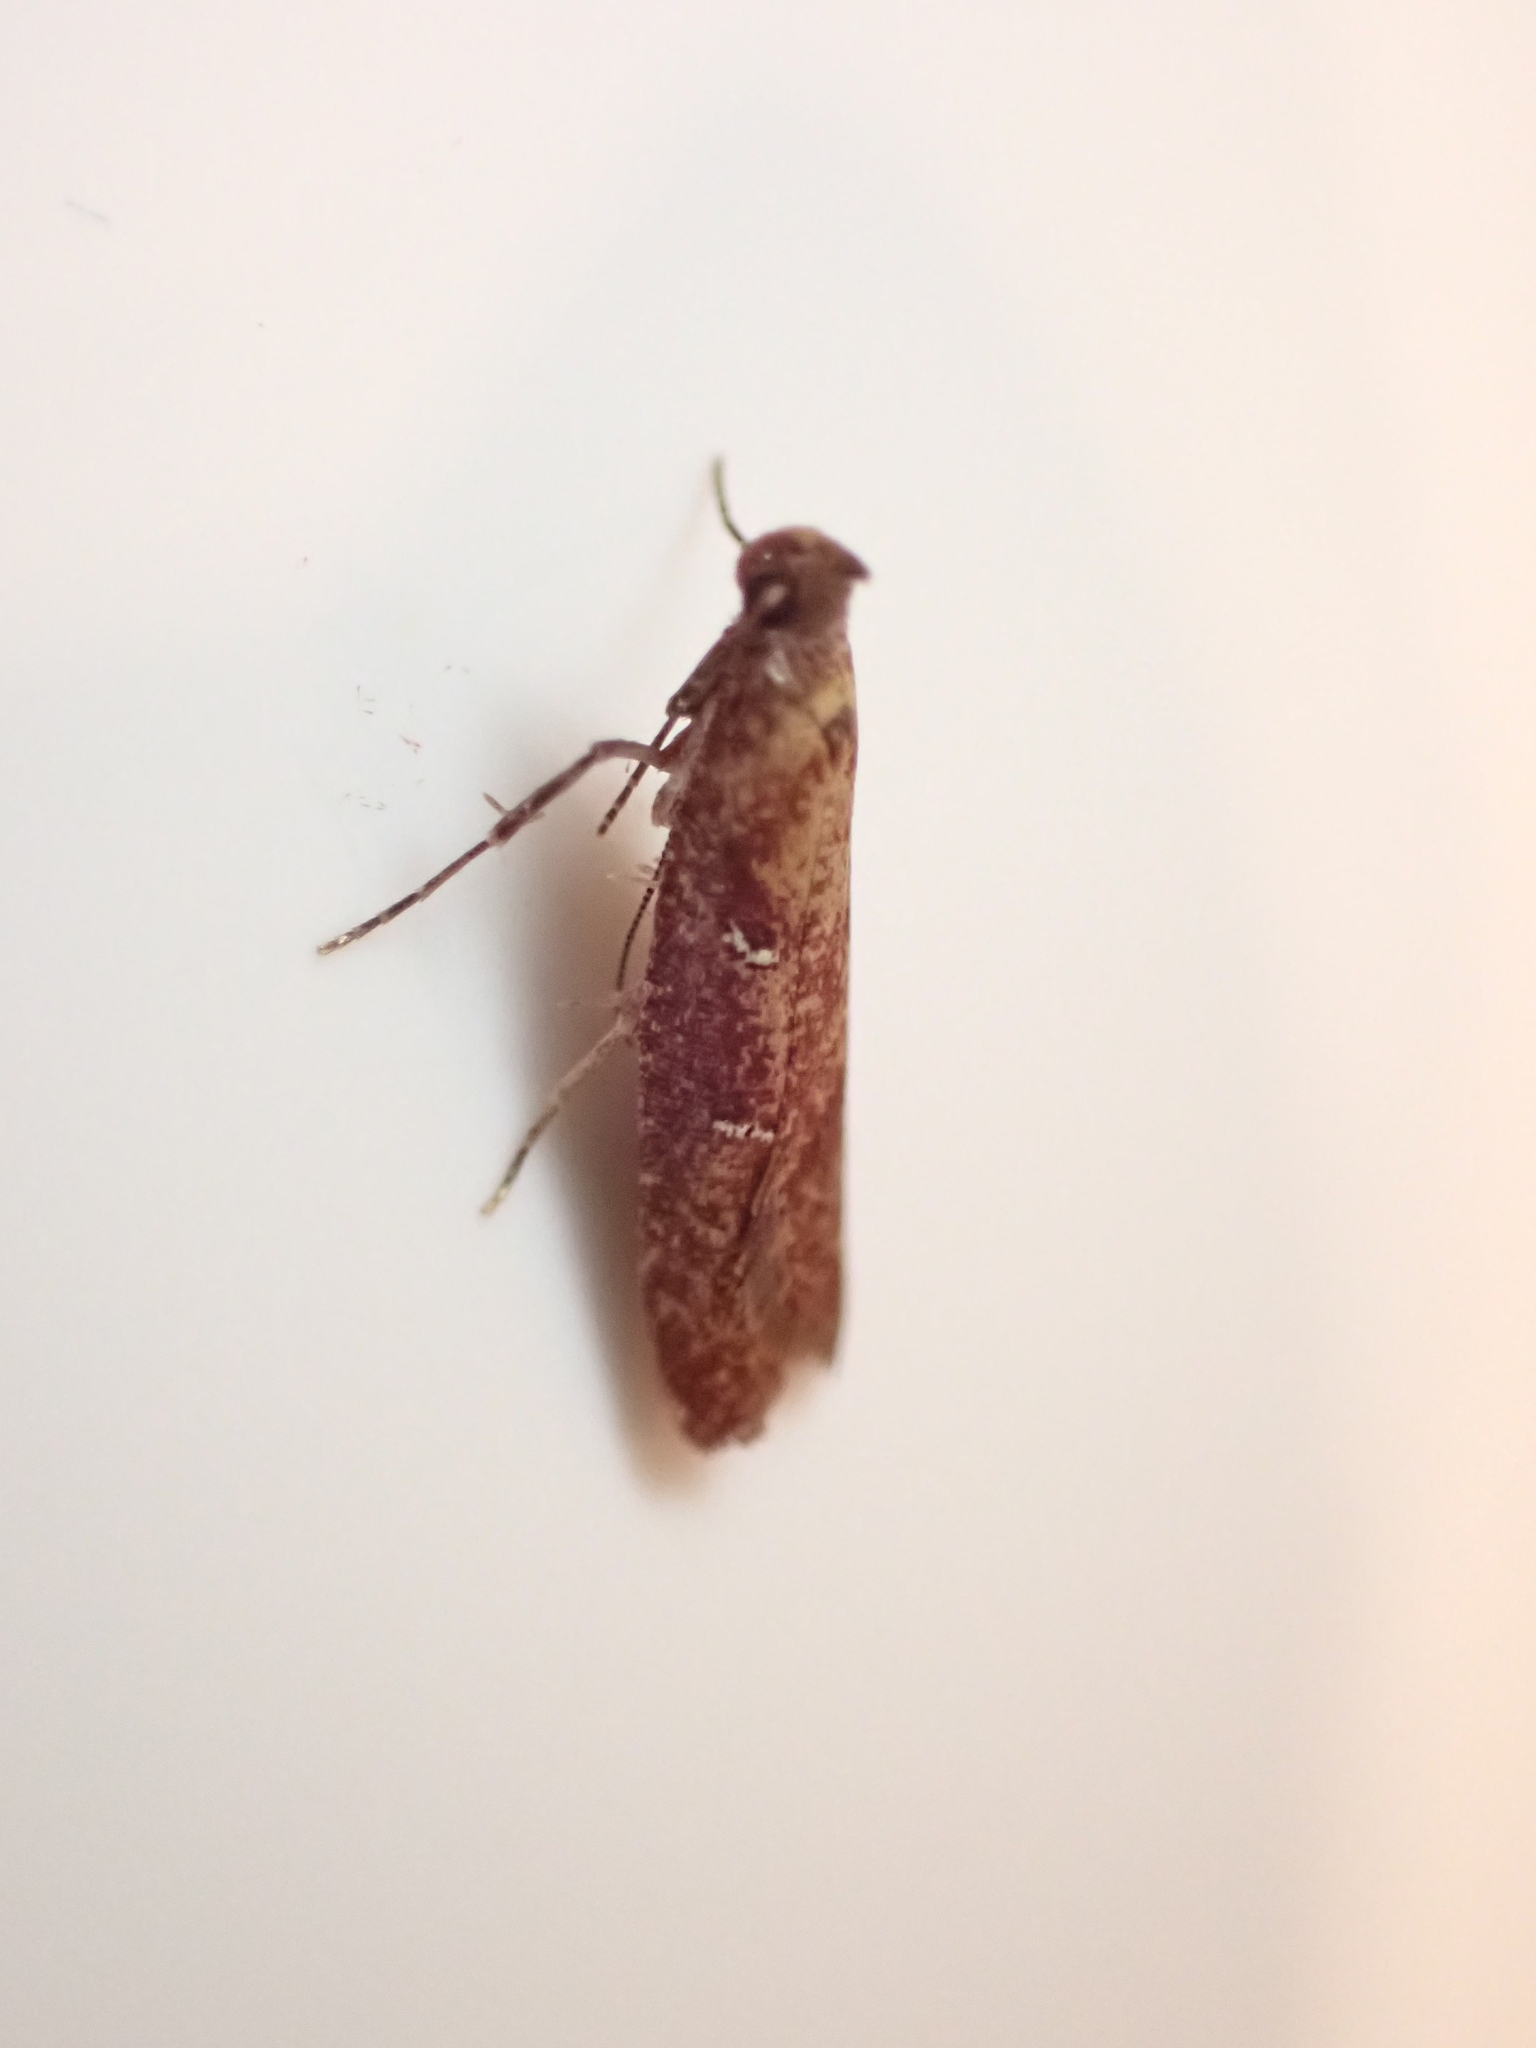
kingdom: Animalia
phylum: Arthropoda
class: Insecta
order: Lepidoptera
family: Plutellidae
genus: Cadmogenes
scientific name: Cadmogenes literata
